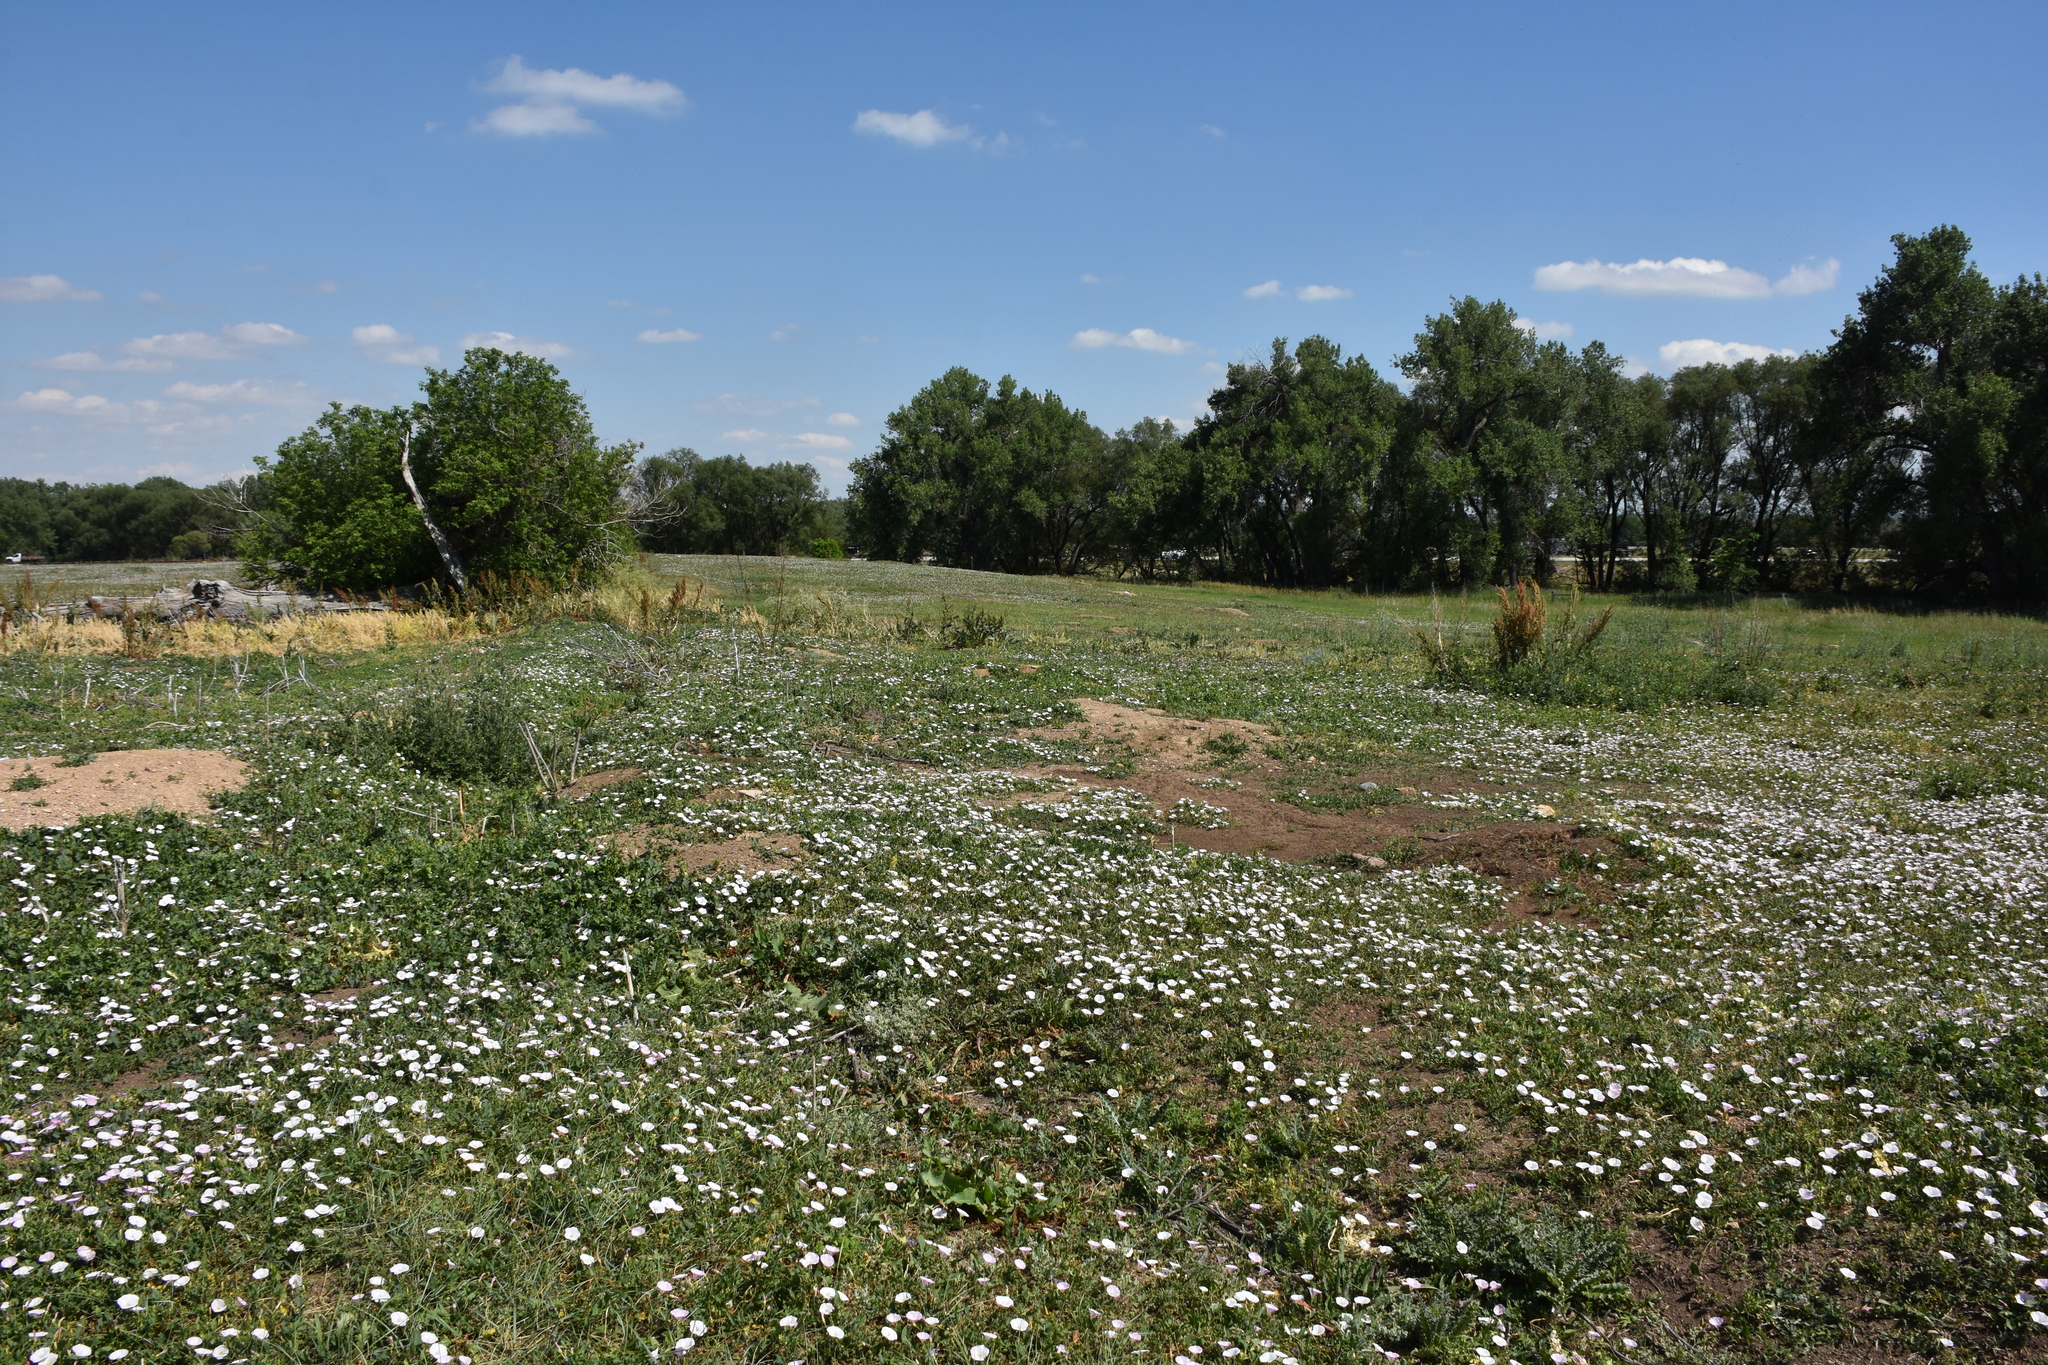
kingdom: Plantae
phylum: Tracheophyta
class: Magnoliopsida
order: Solanales
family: Convolvulaceae
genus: Convolvulus
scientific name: Convolvulus arvensis
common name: Field bindweed
